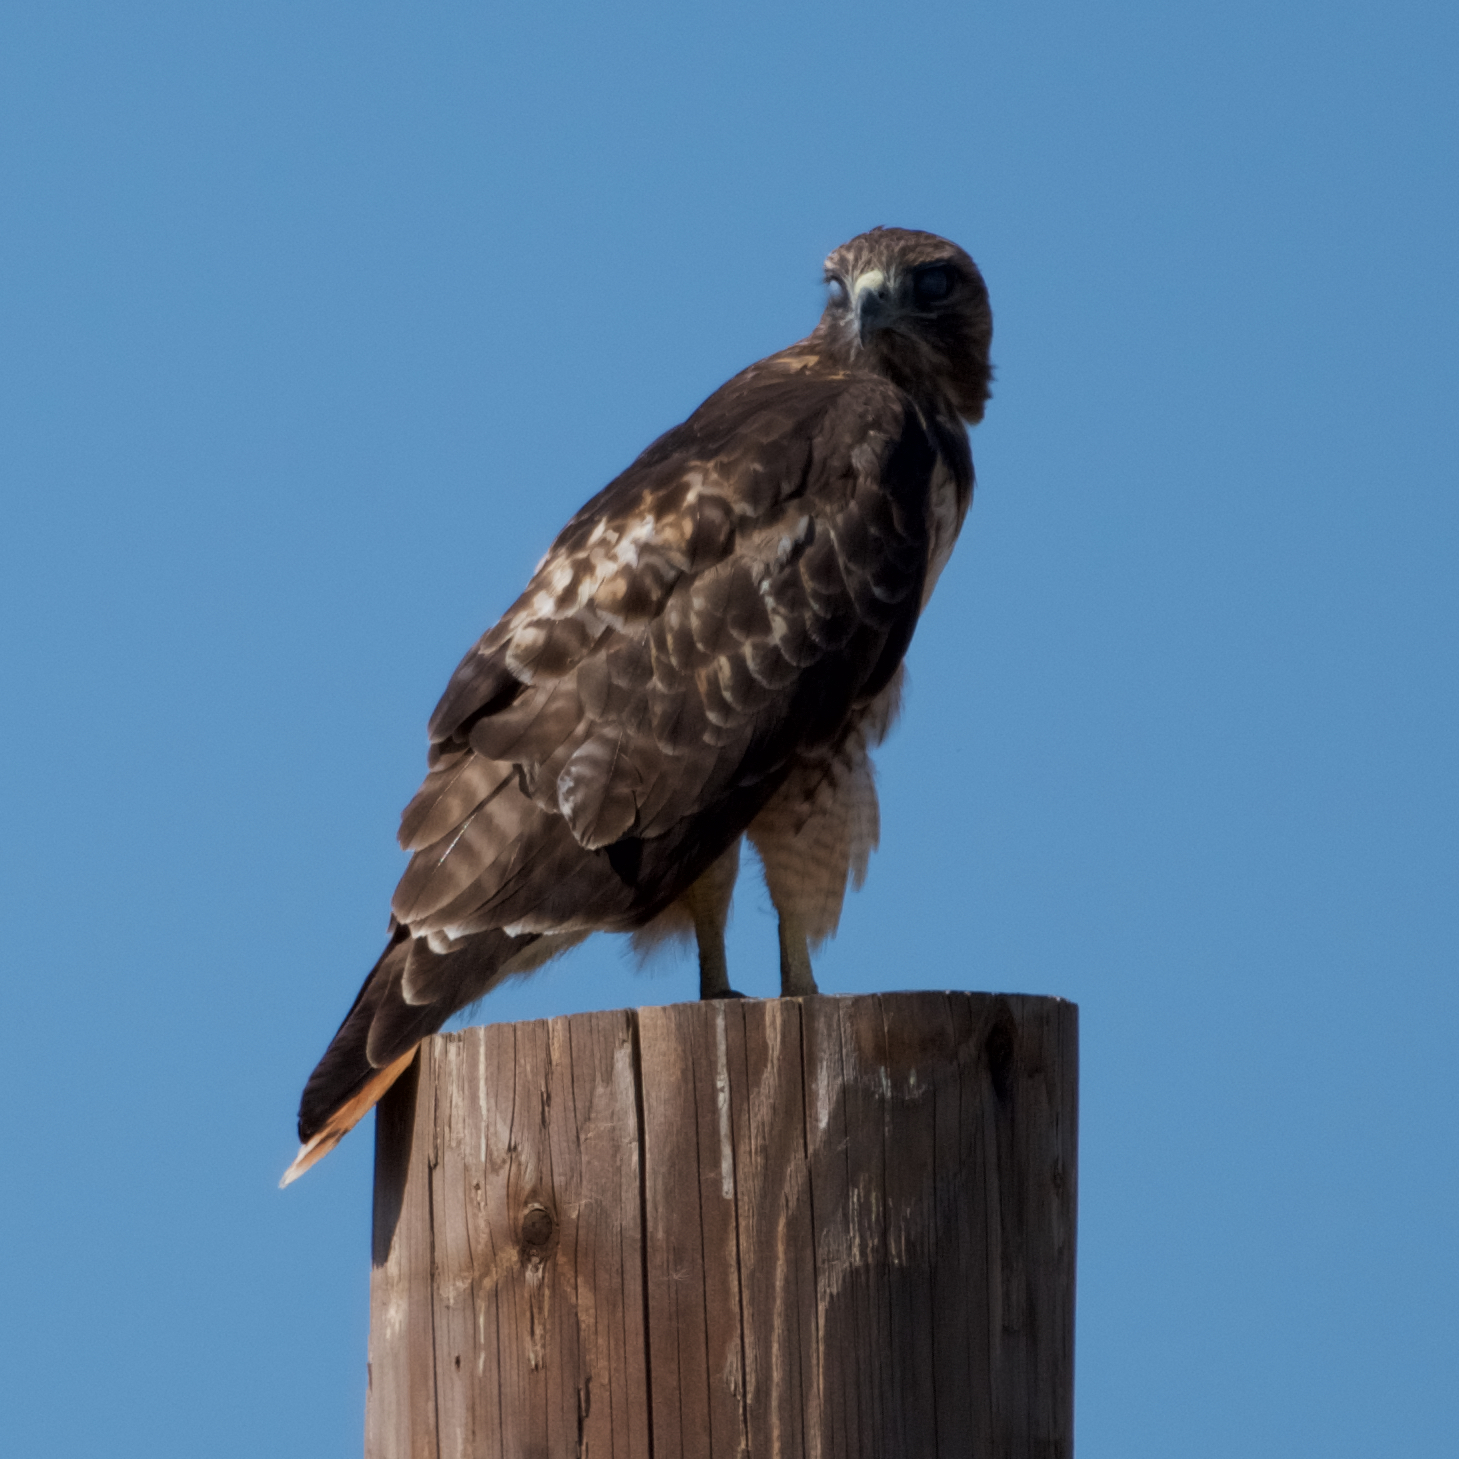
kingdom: Animalia
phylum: Chordata
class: Aves
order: Accipitriformes
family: Accipitridae
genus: Buteo
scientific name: Buteo jamaicensis
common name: Red-tailed hawk
